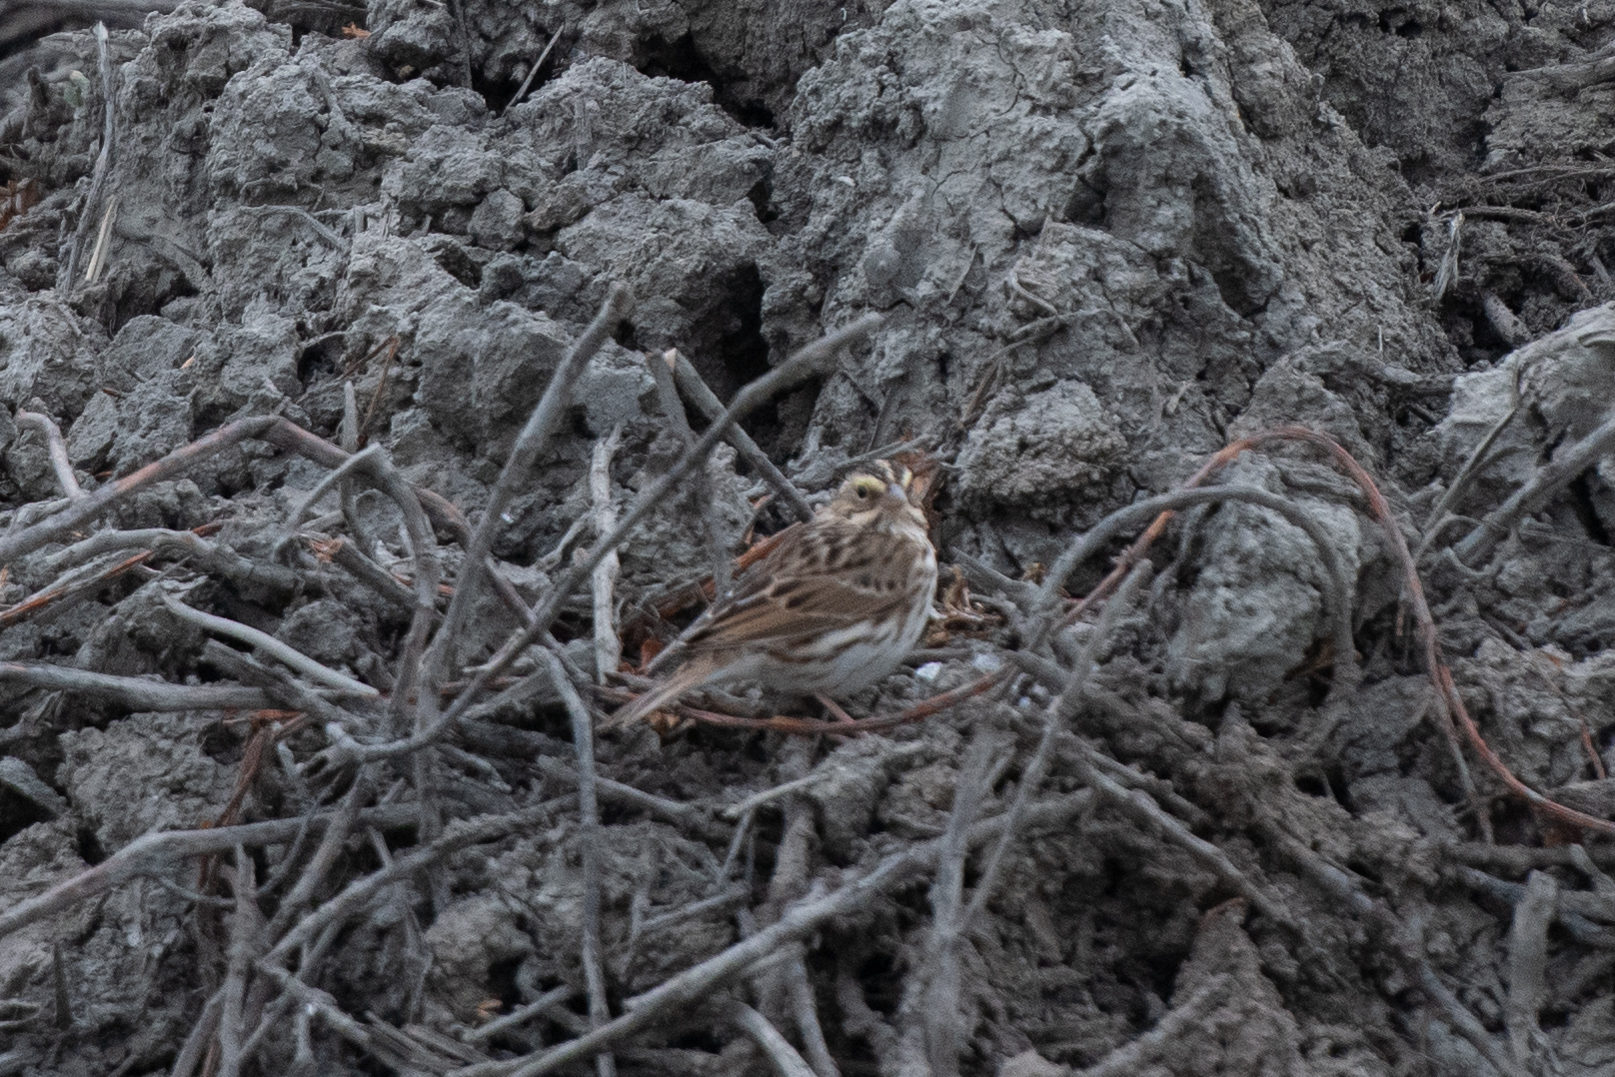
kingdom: Animalia
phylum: Chordata
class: Aves
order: Passeriformes
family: Passerellidae
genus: Passerculus
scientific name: Passerculus sandwichensis
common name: Savannah sparrow
